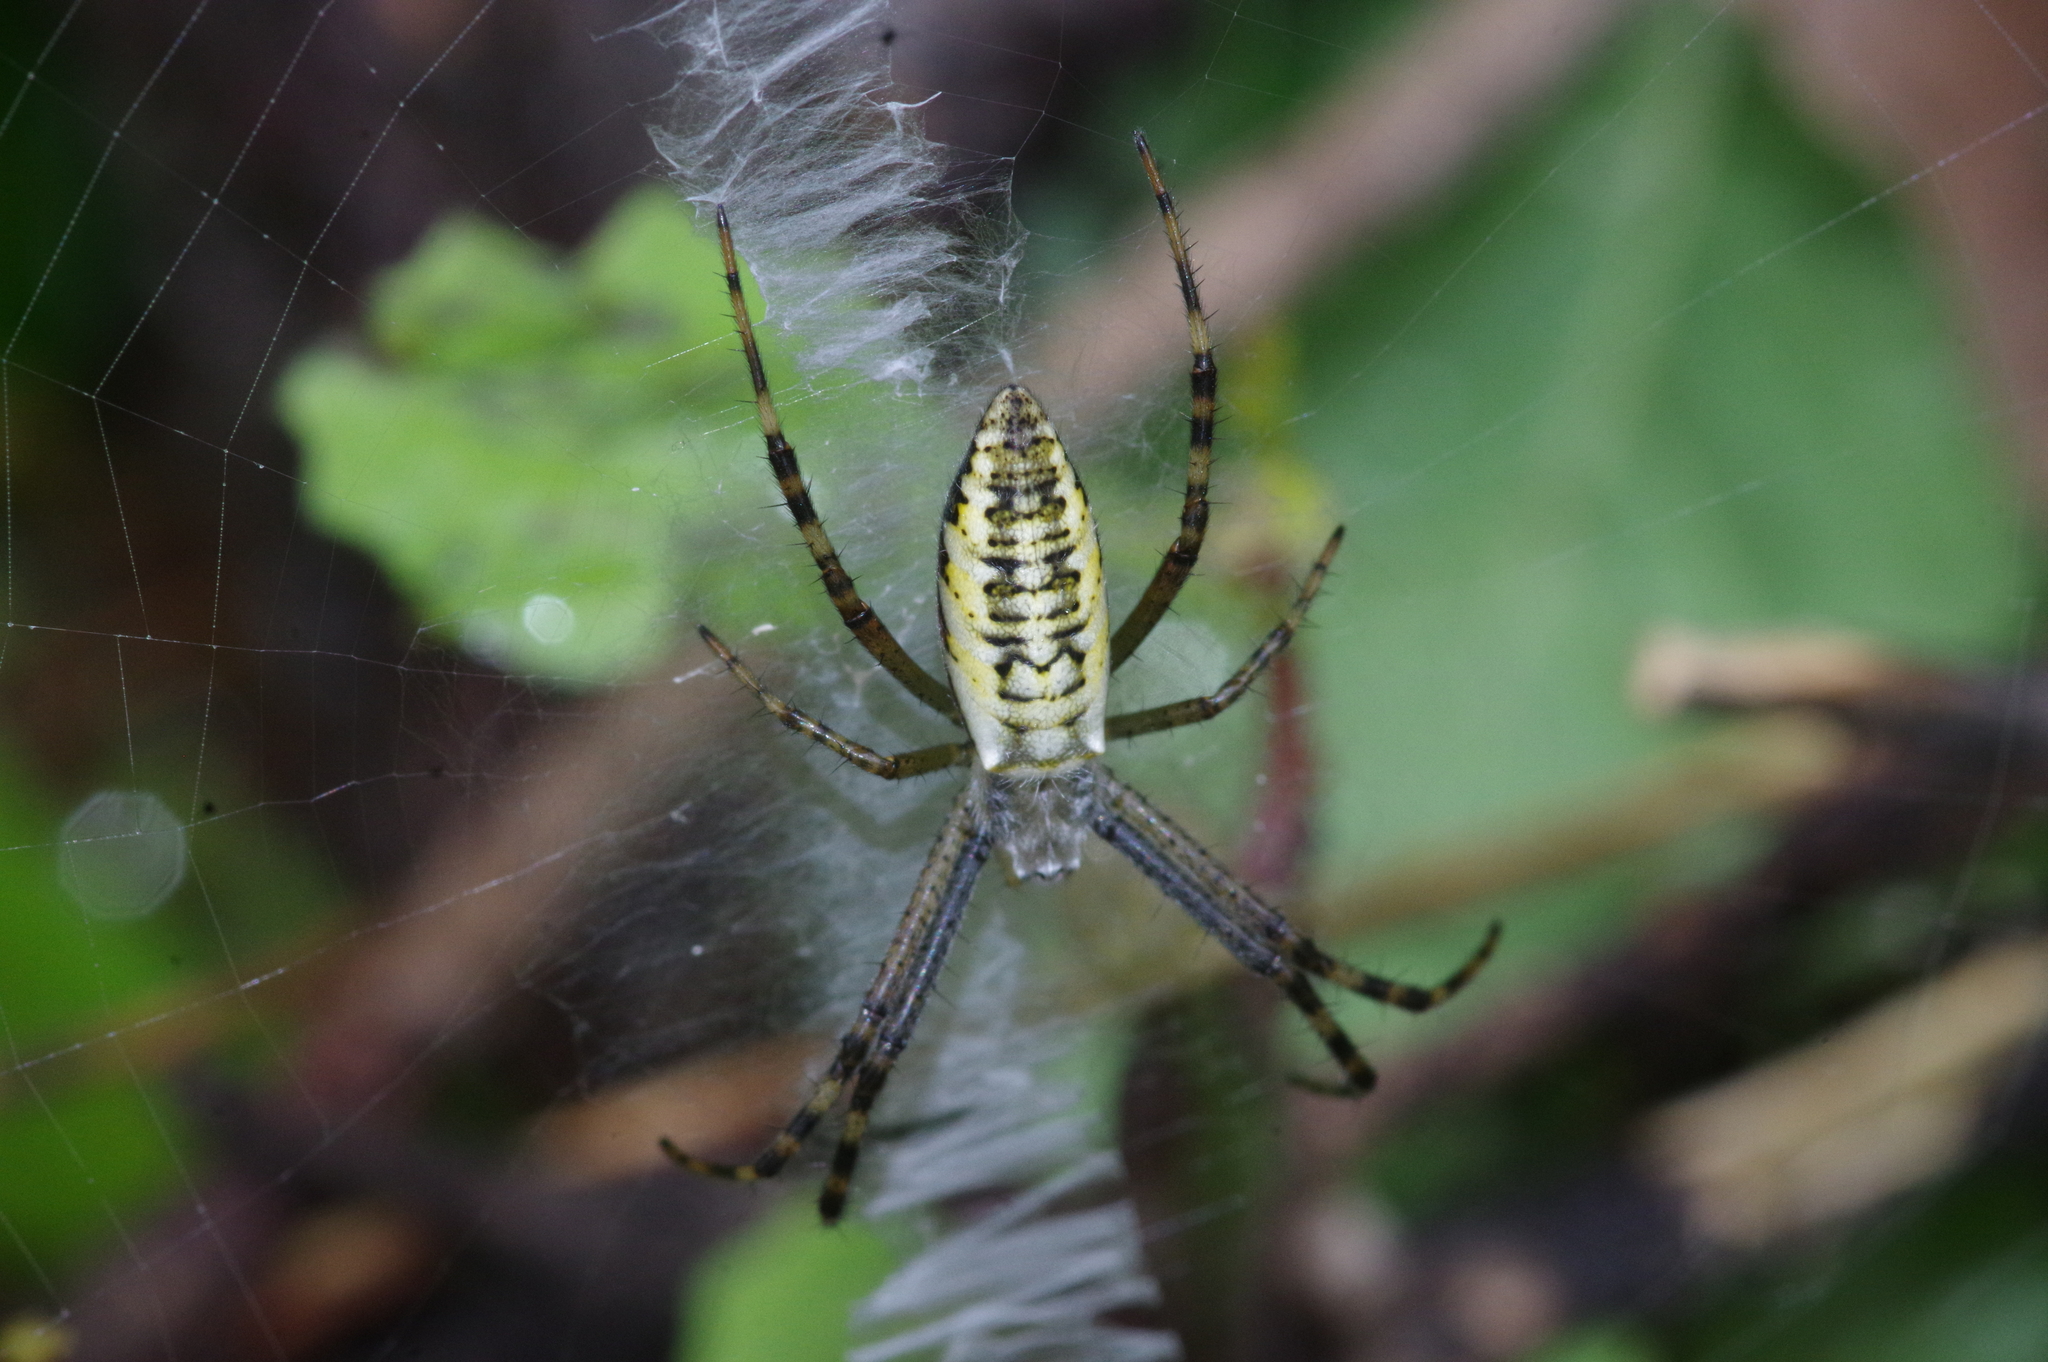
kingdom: Animalia
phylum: Arthropoda
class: Arachnida
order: Araneae
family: Araneidae
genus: Argiope
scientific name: Argiope bruennichi
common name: Wasp spider
